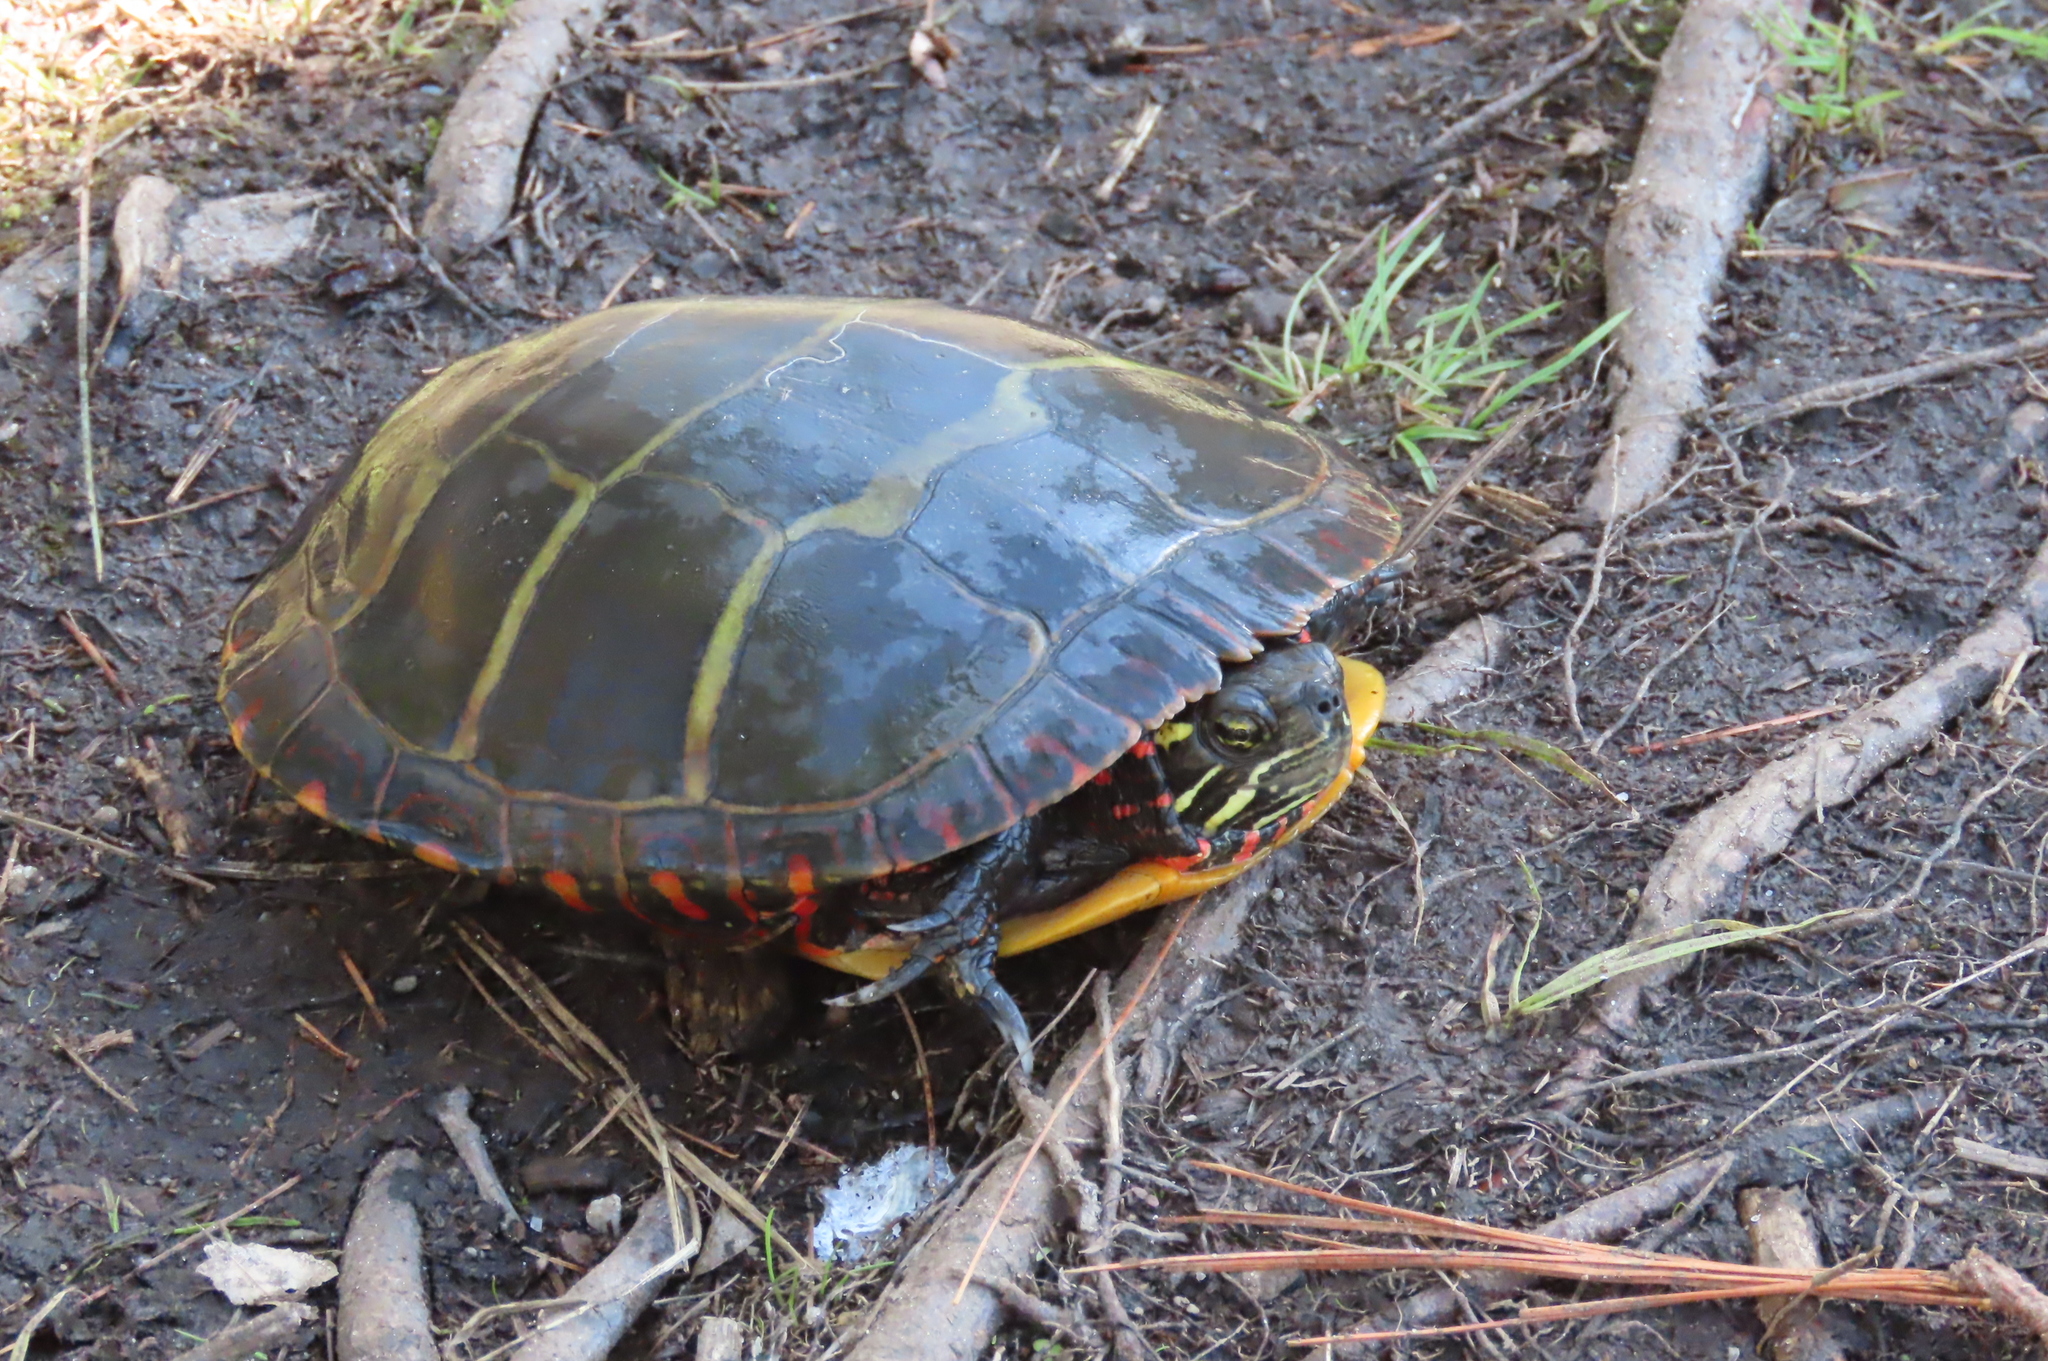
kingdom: Animalia
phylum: Chordata
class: Testudines
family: Emydidae
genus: Chrysemys
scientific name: Chrysemys picta
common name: Painted turtle
